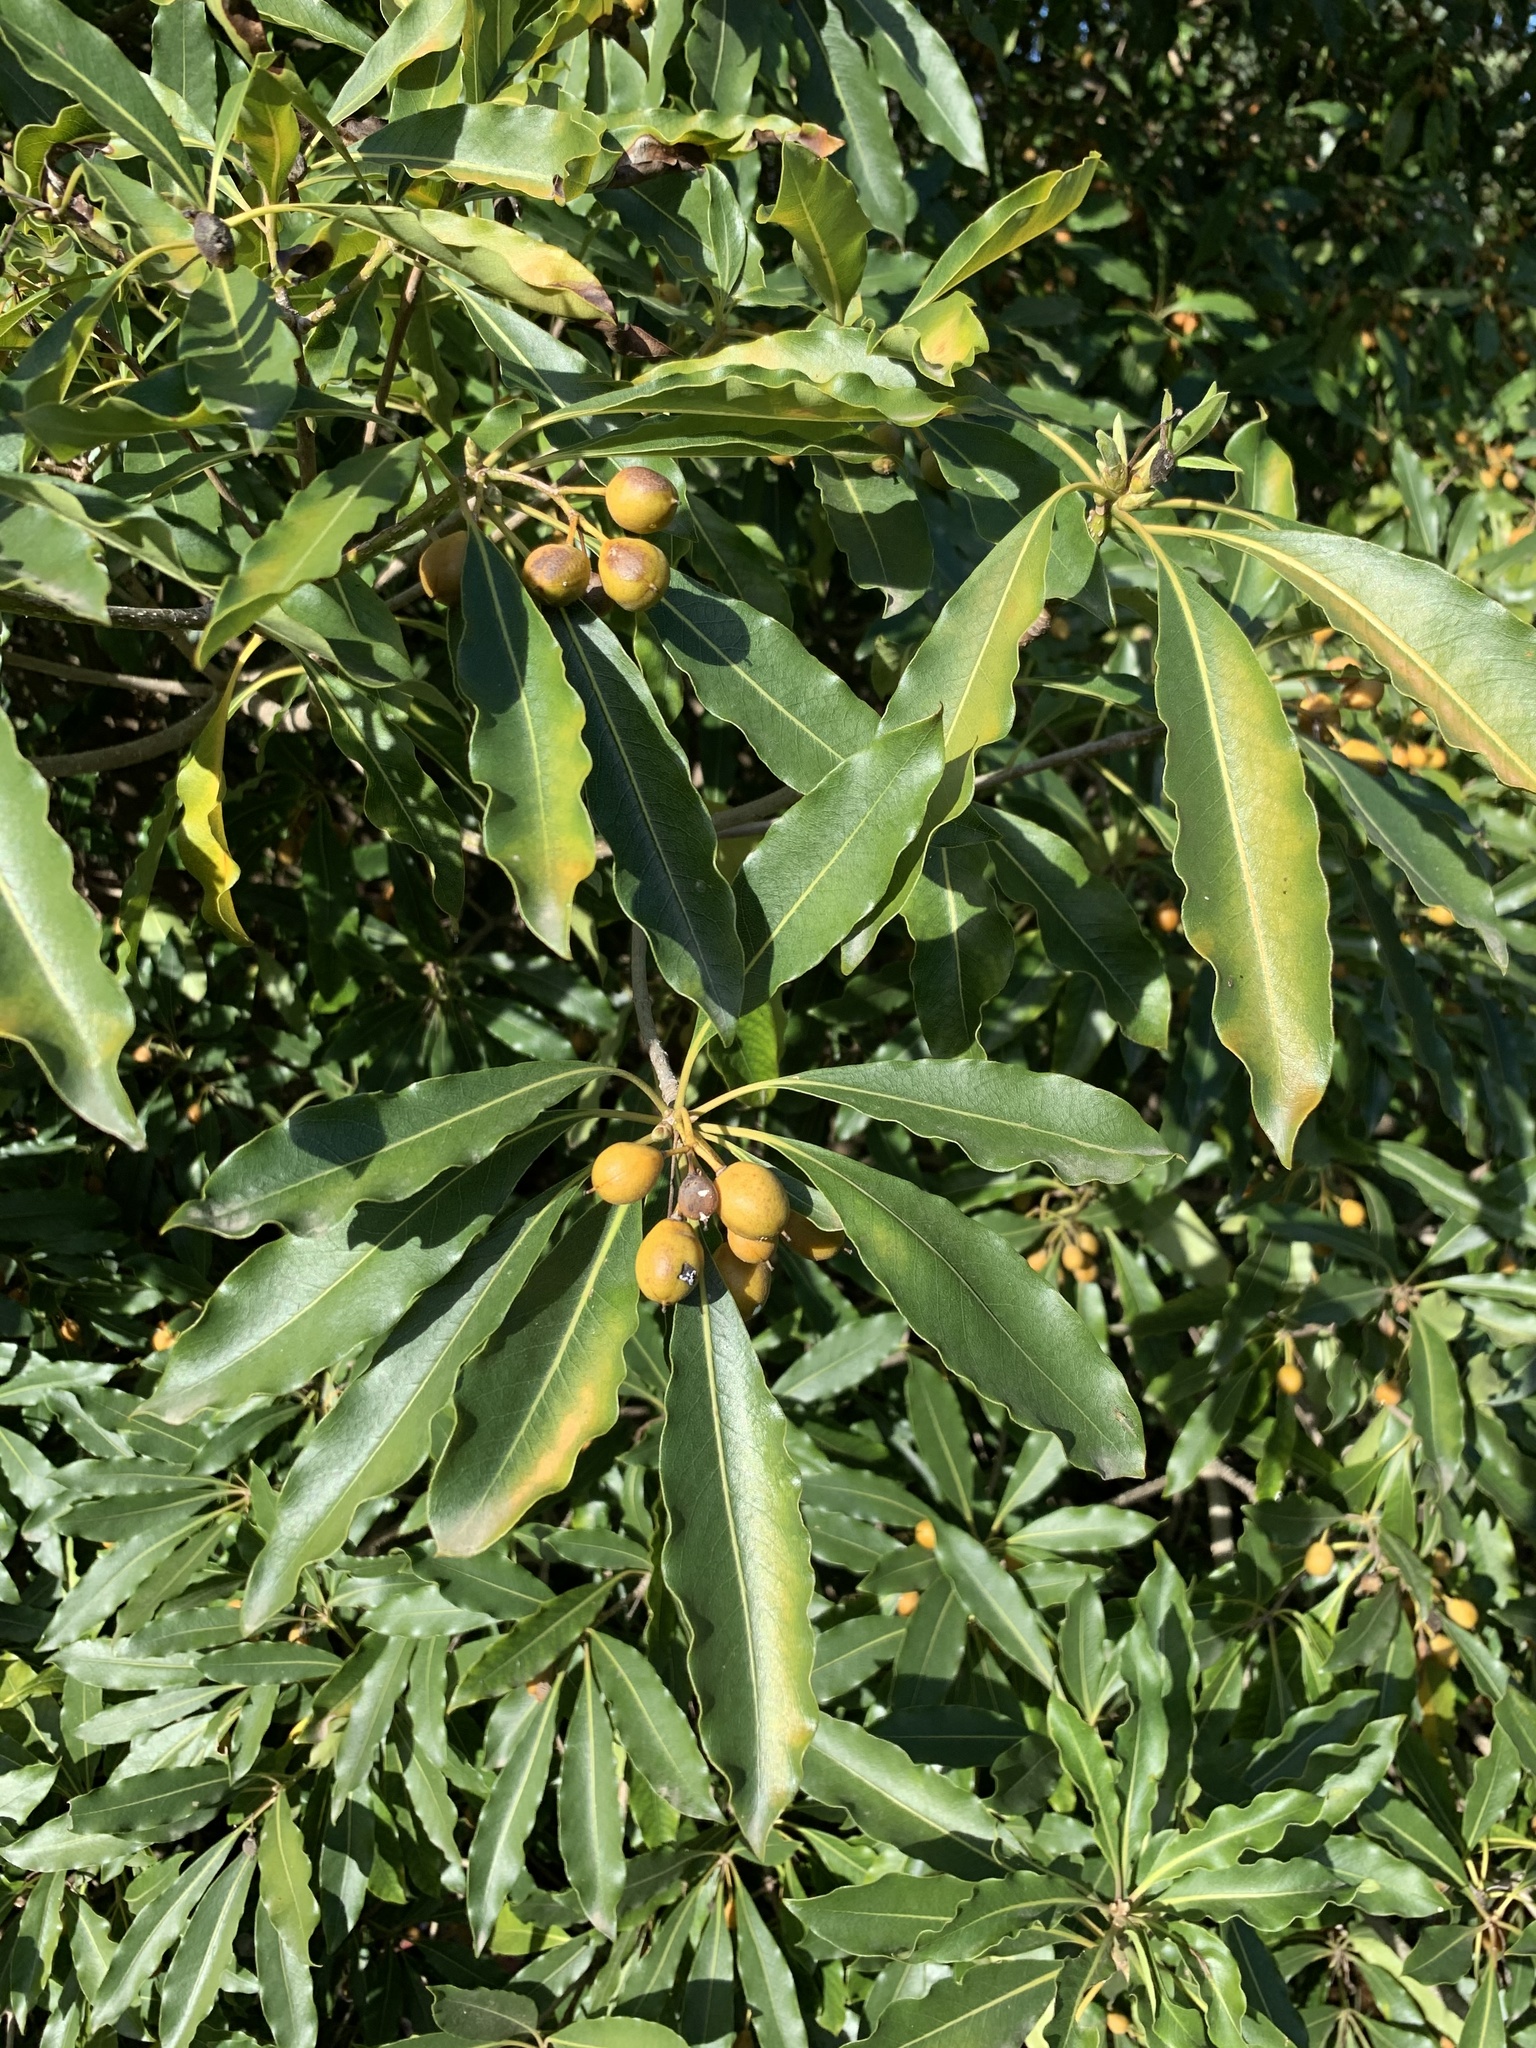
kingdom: Plantae
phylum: Tracheophyta
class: Magnoliopsida
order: Apiales
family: Pittosporaceae
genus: Pittosporum
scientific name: Pittosporum undulatum
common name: Australian cheesewood
